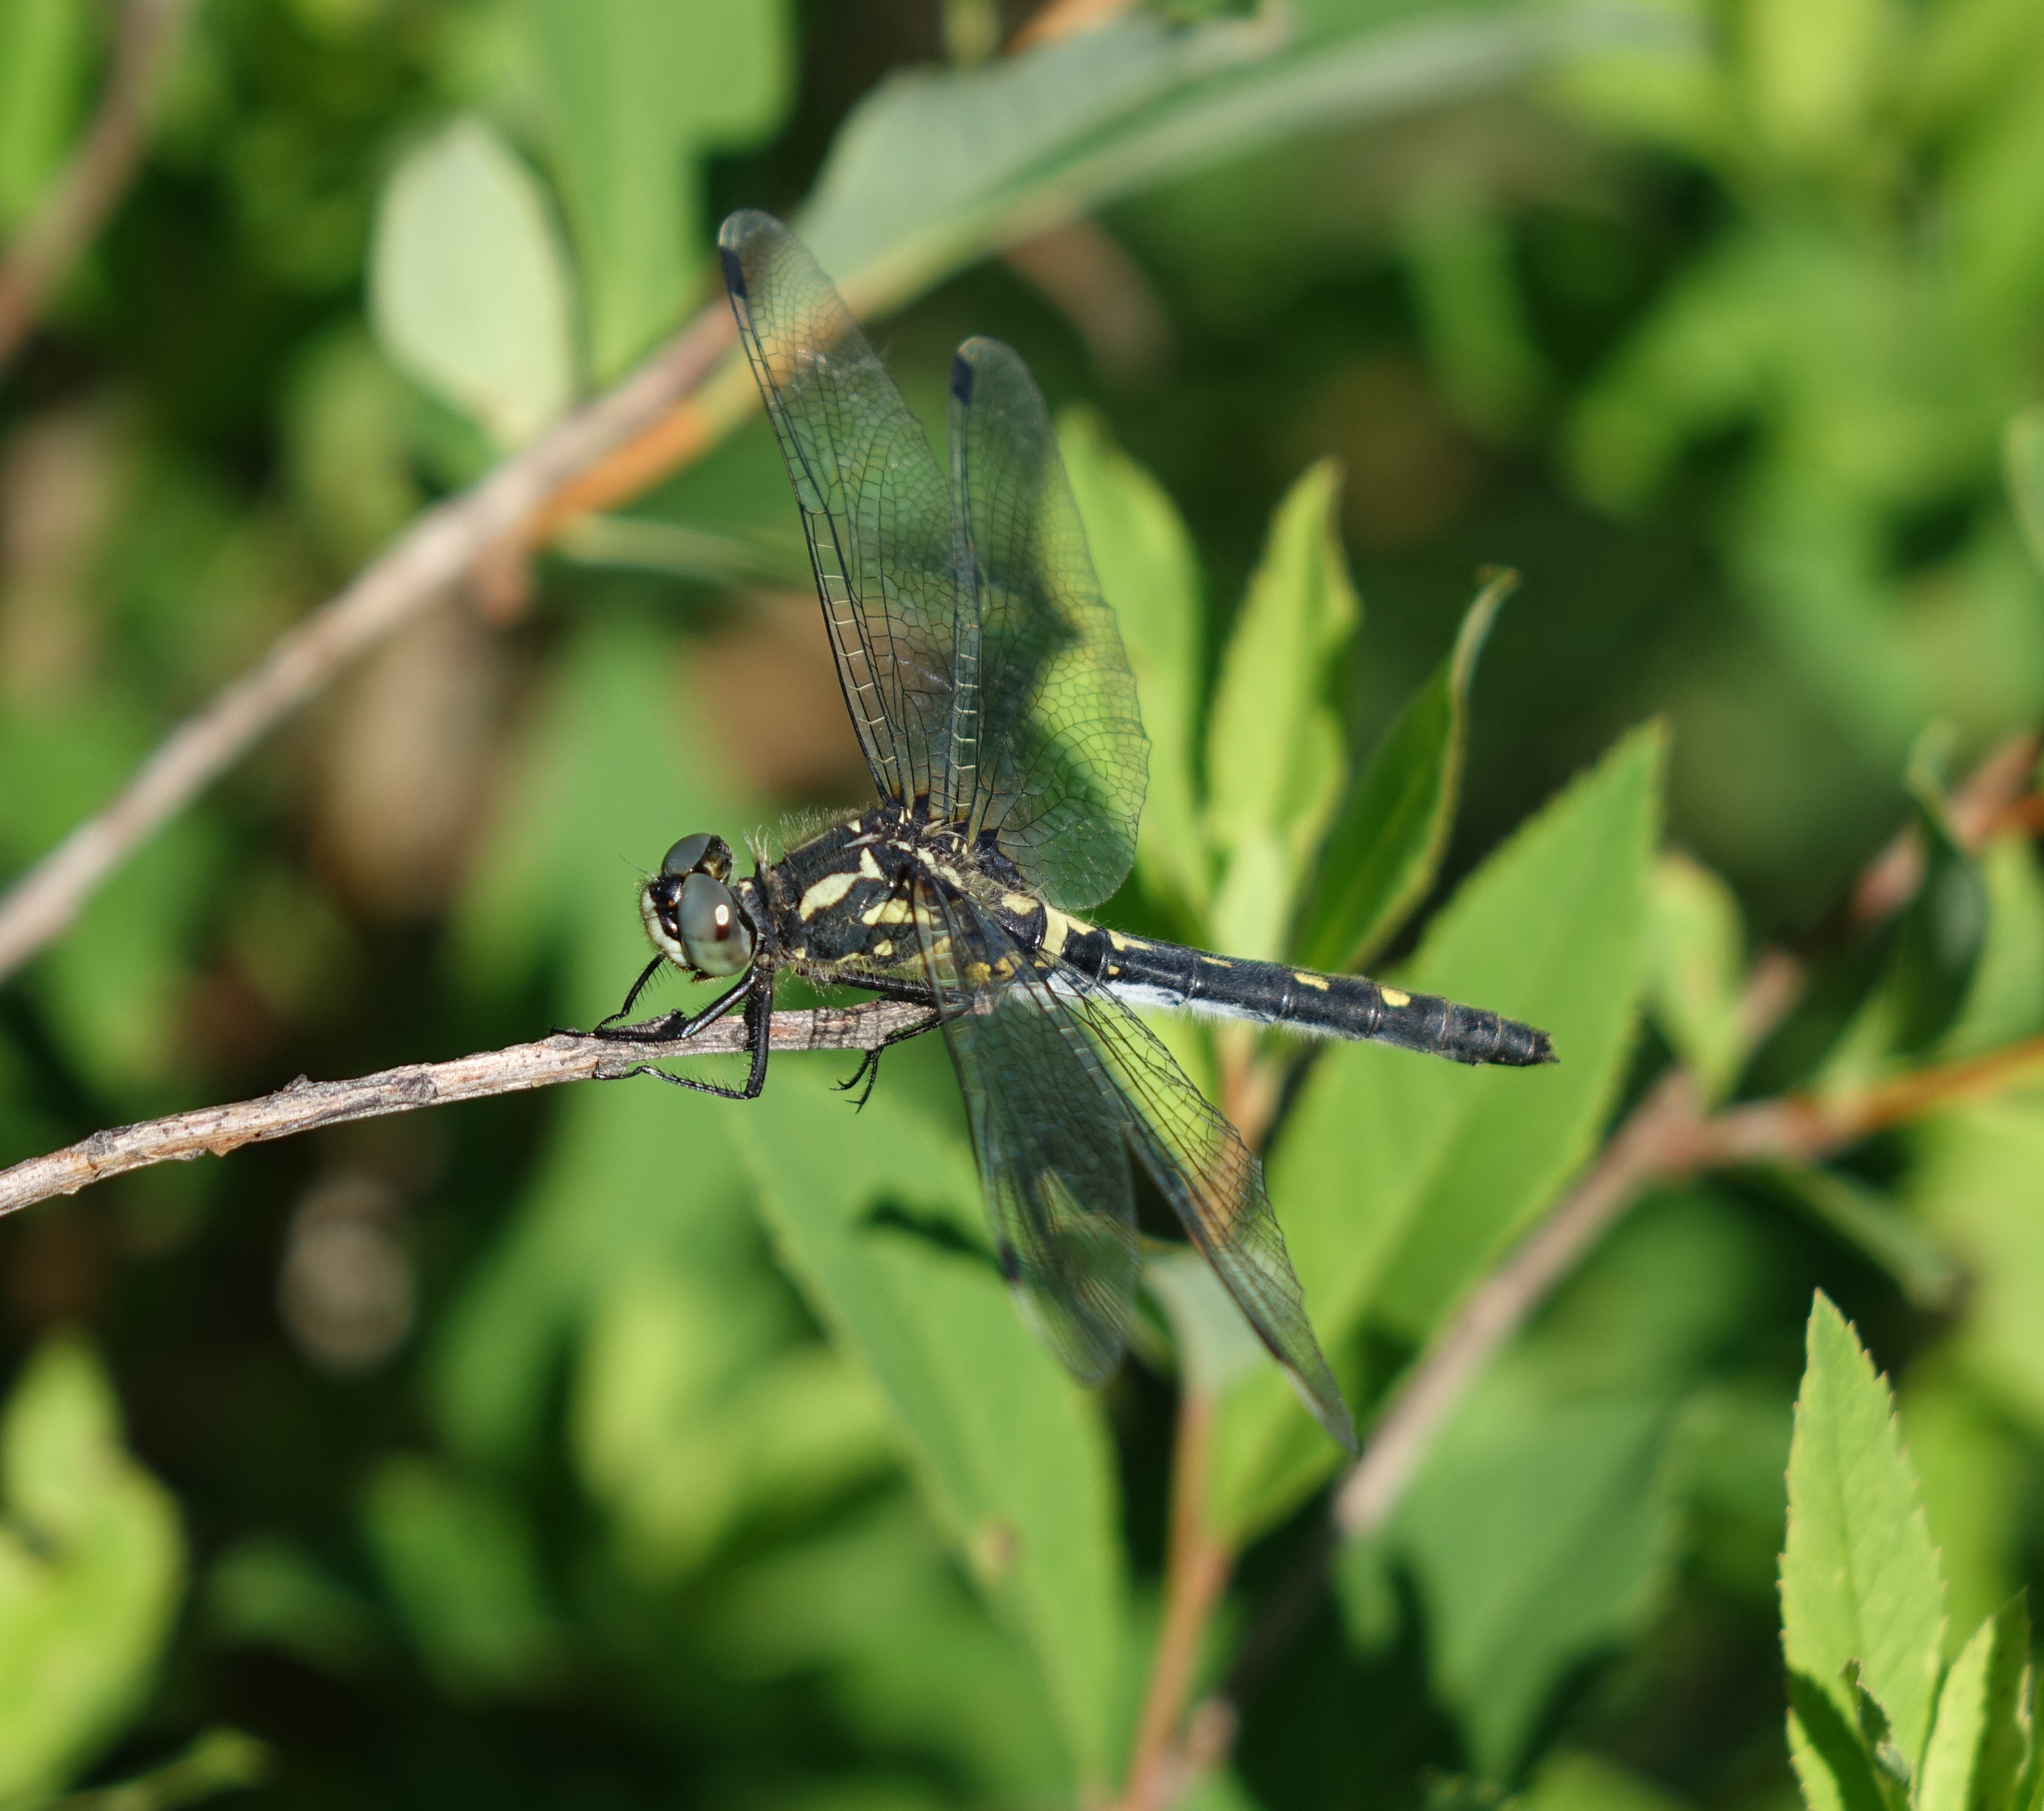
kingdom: Animalia
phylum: Arthropoda
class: Insecta
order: Odonata
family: Libellulidae
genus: Leucorrhinia
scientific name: Leucorrhinia orientalis
